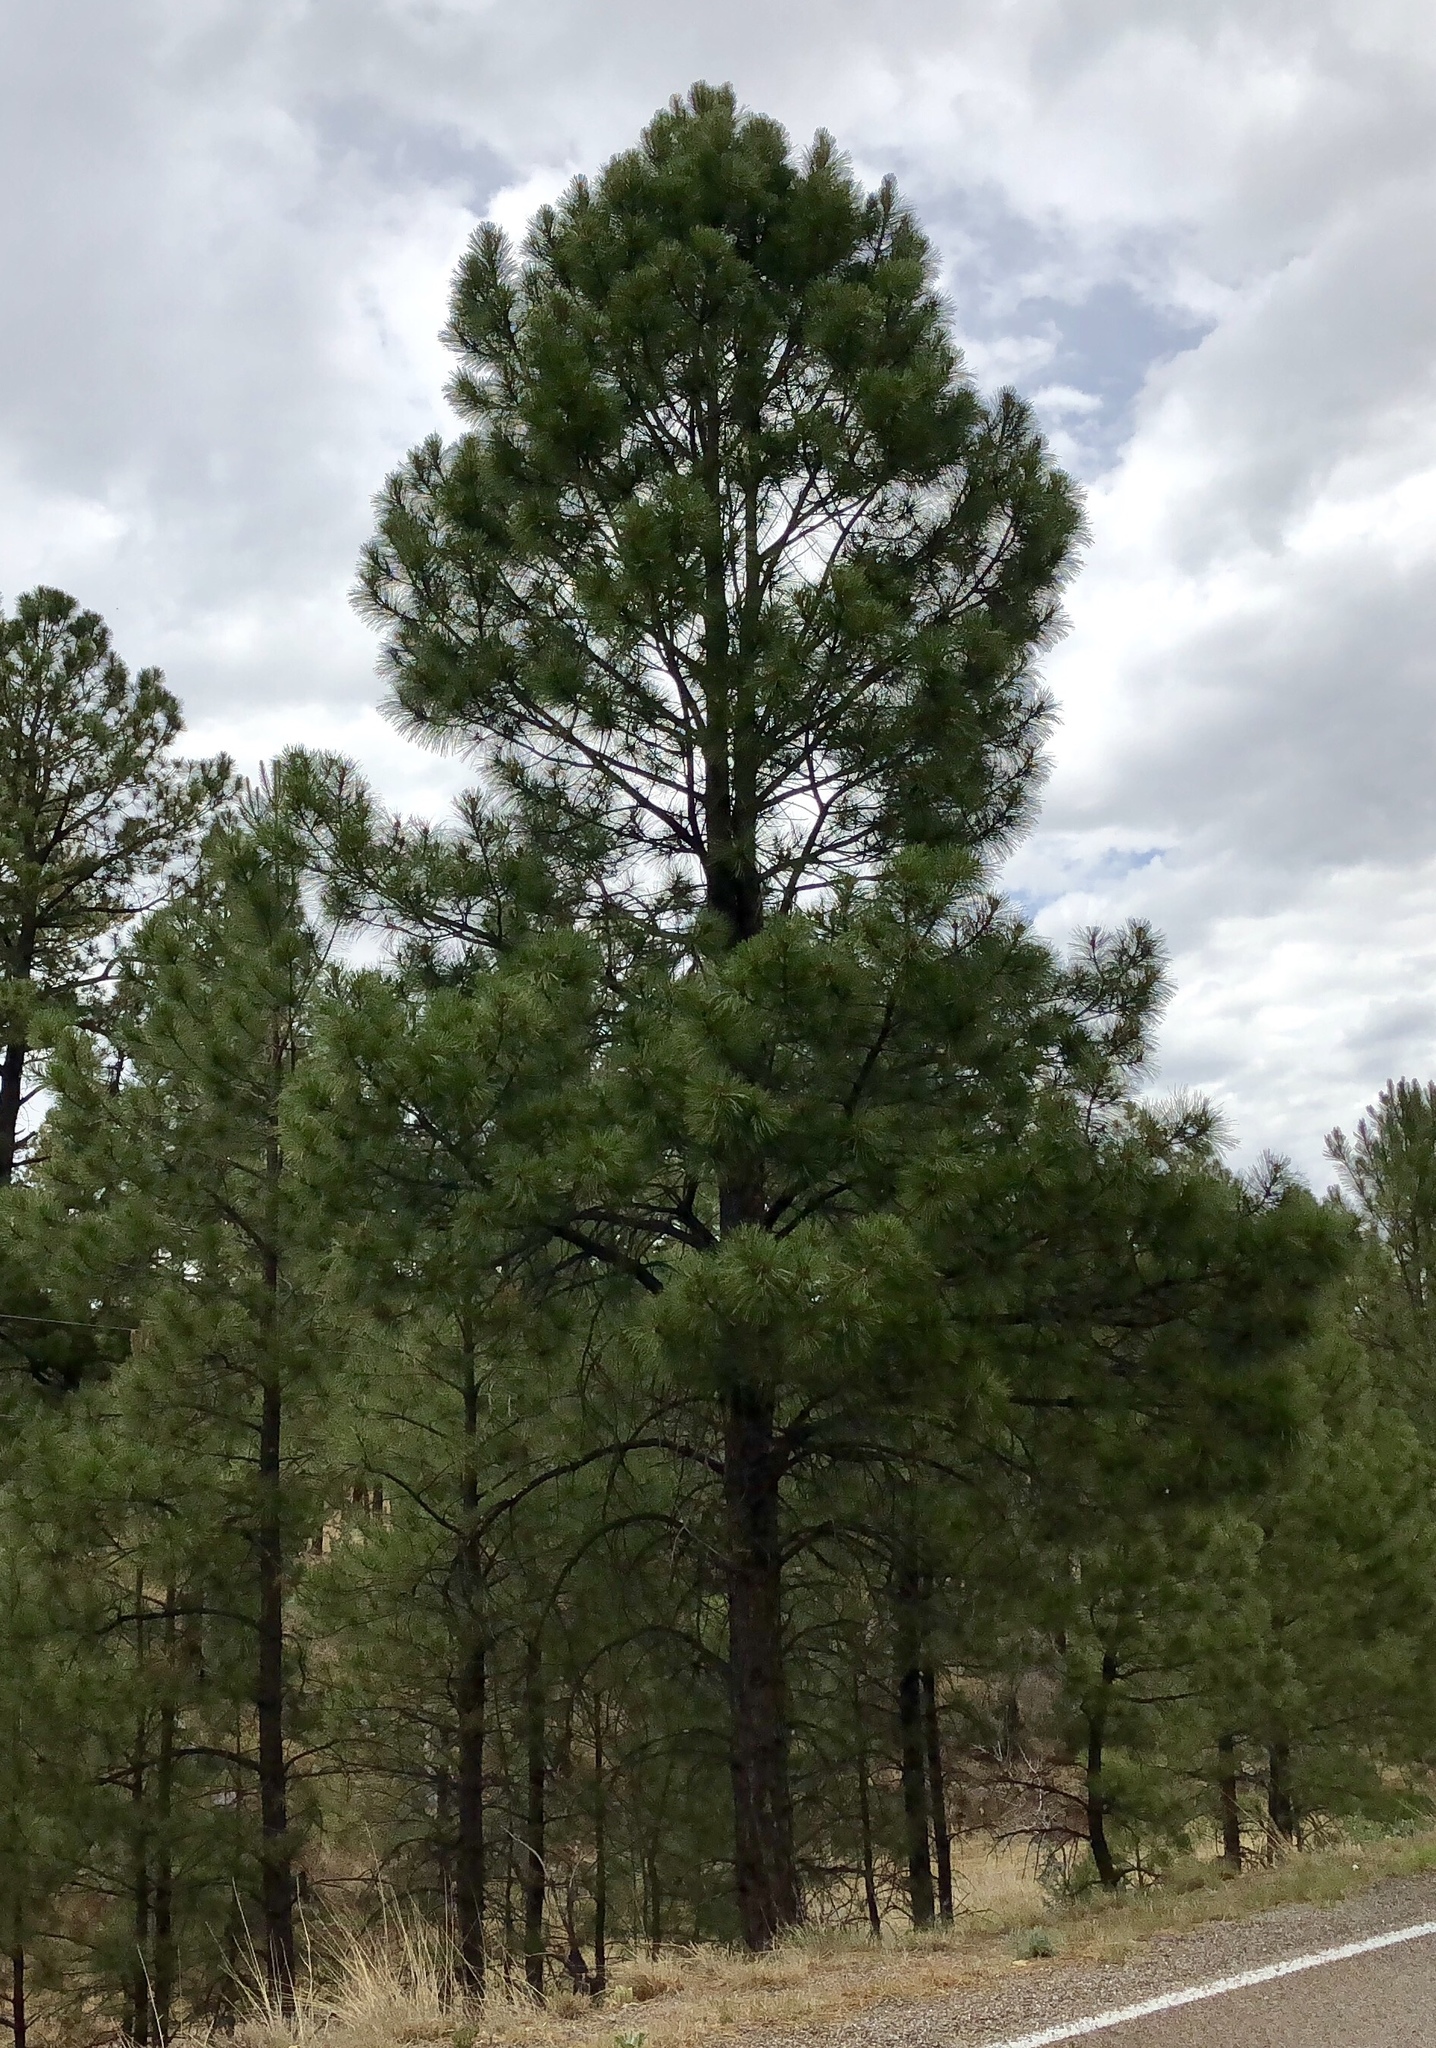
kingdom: Plantae
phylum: Tracheophyta
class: Pinopsida
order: Pinales
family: Pinaceae
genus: Pinus
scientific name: Pinus ponderosa
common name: Western yellow-pine
